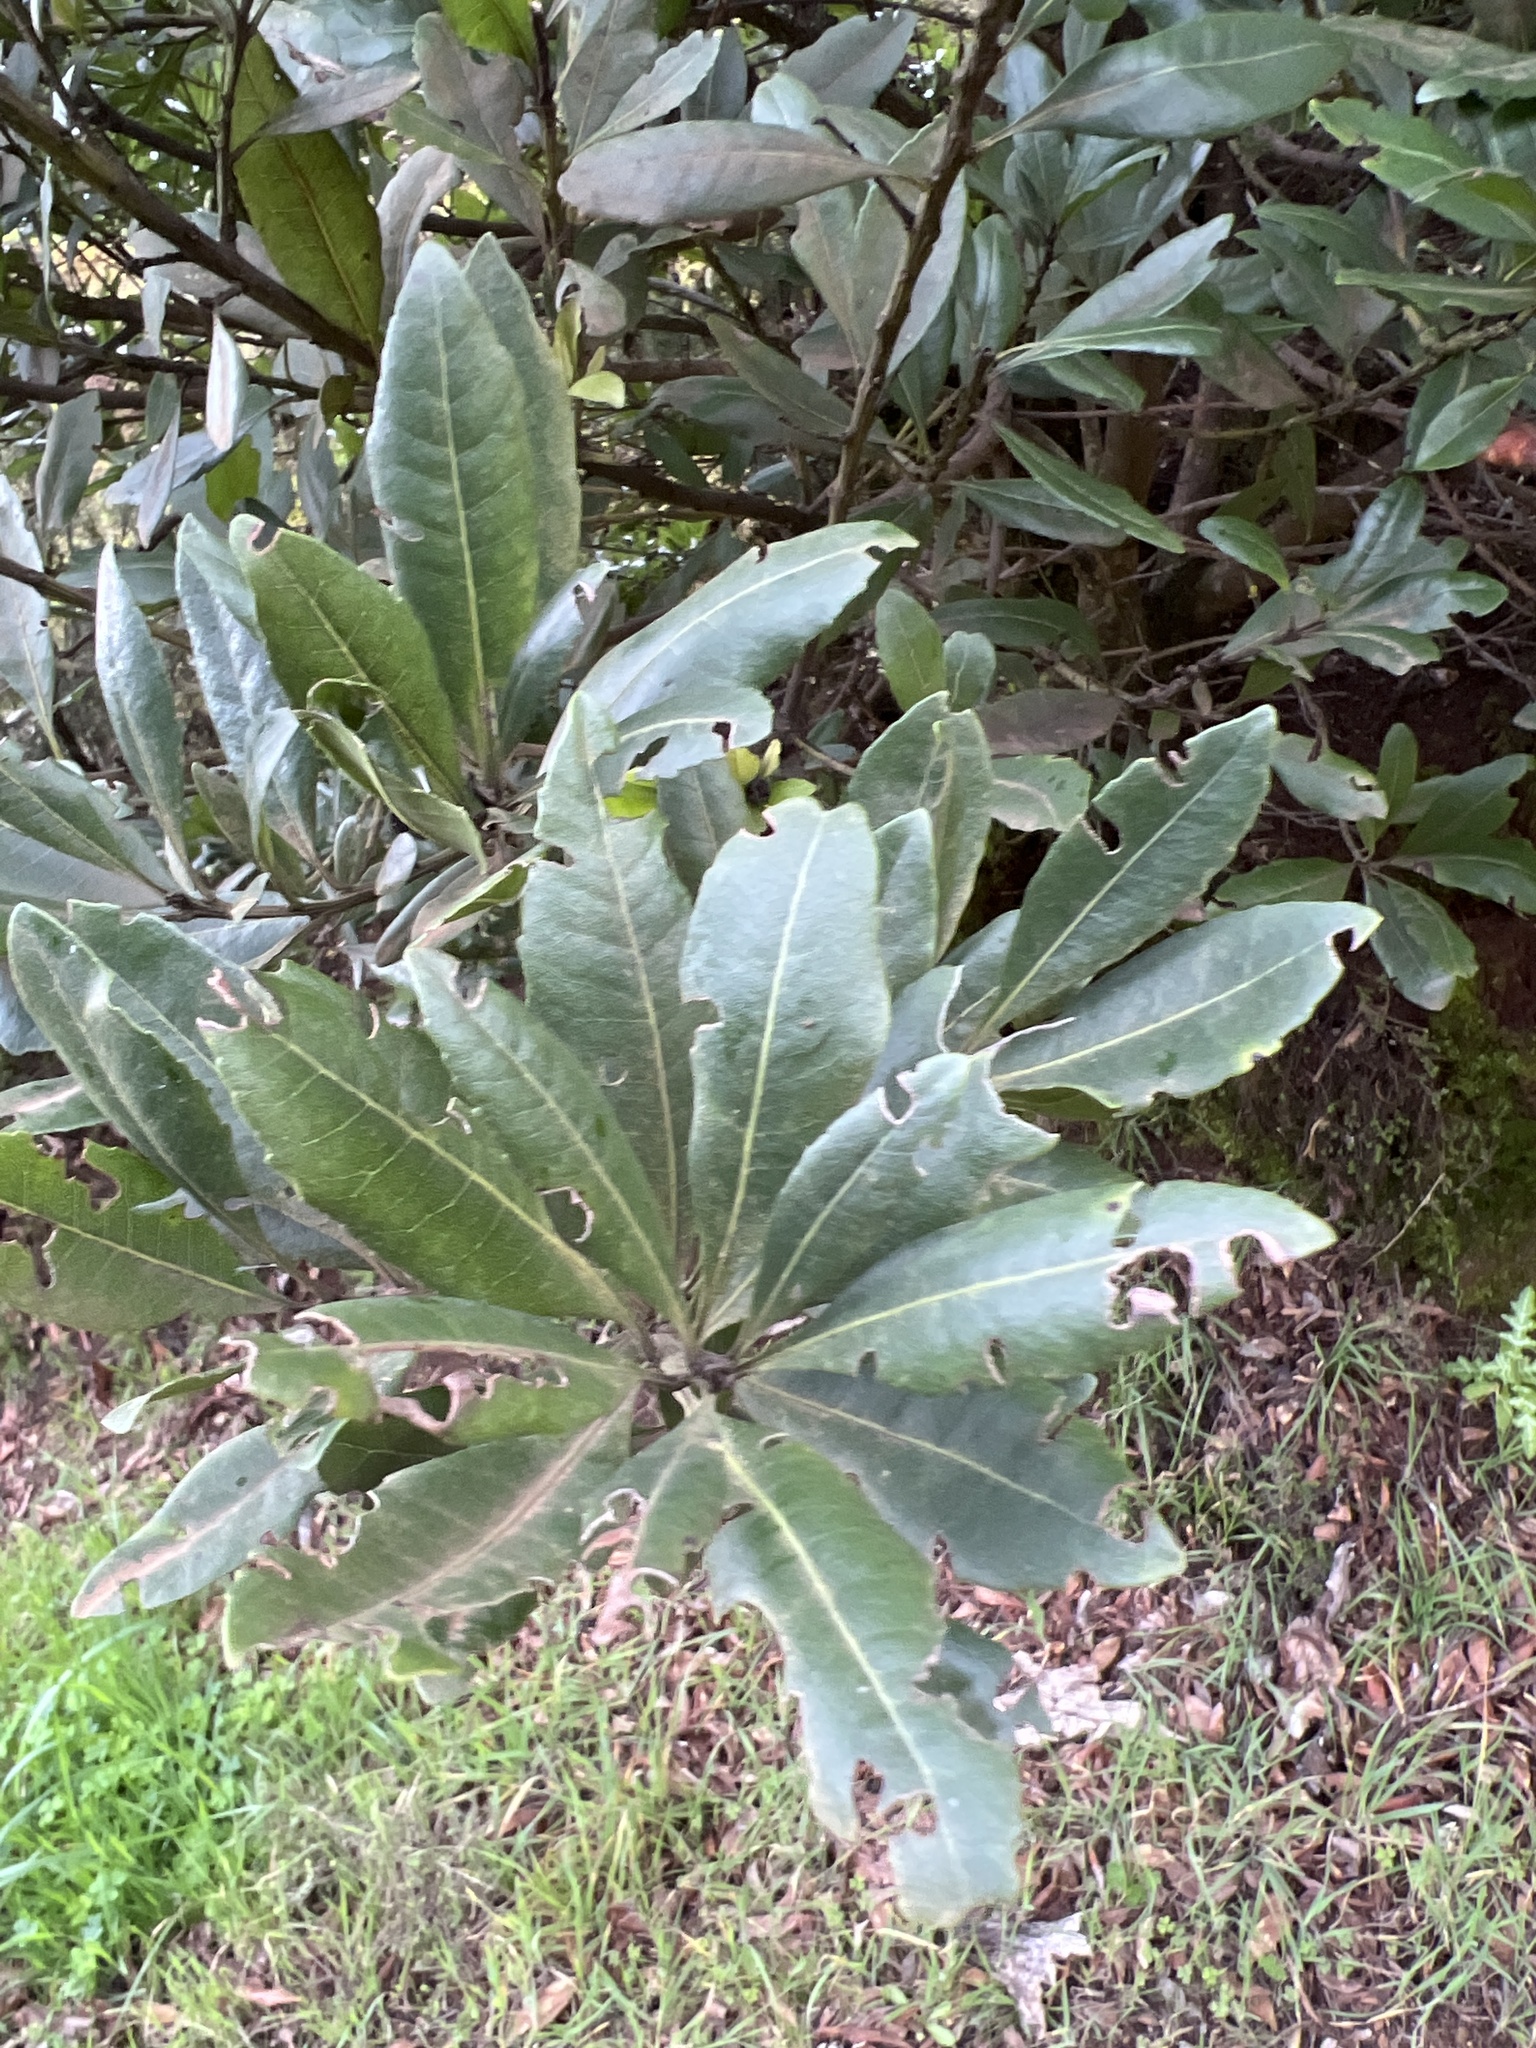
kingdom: Plantae
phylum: Tracheophyta
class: Magnoliopsida
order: Fagales
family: Myricaceae
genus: Morella
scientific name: Morella faya
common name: Firetree
